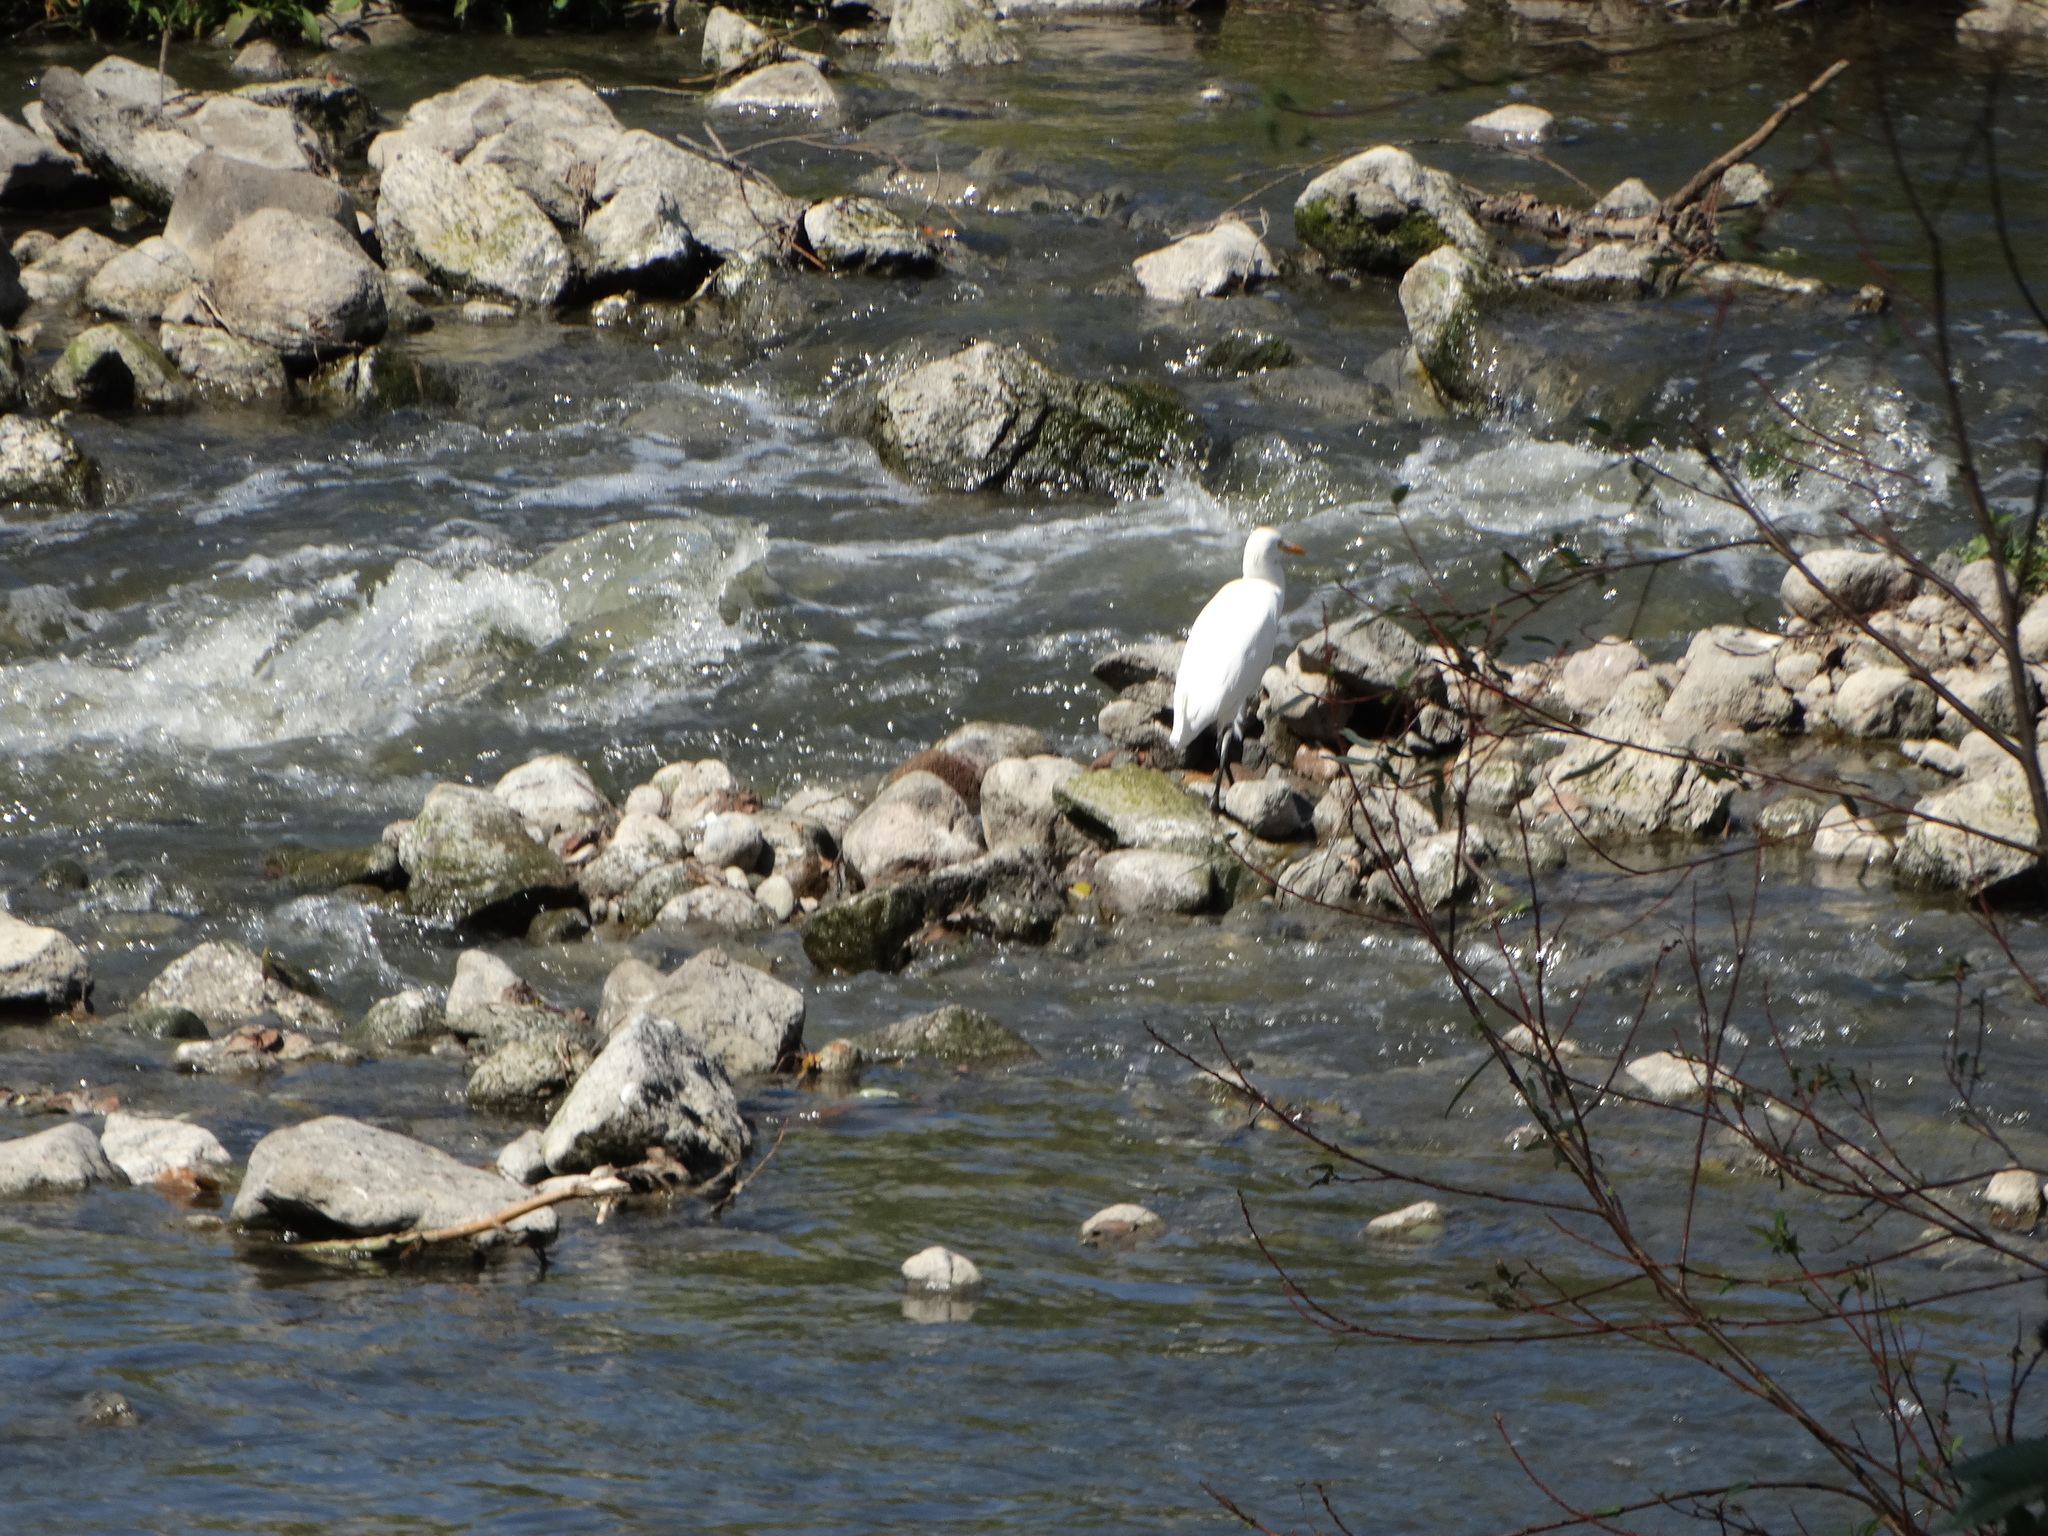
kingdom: Animalia
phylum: Chordata
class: Aves
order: Pelecaniformes
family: Ardeidae
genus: Bubulcus
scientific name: Bubulcus ibis
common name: Cattle egret
